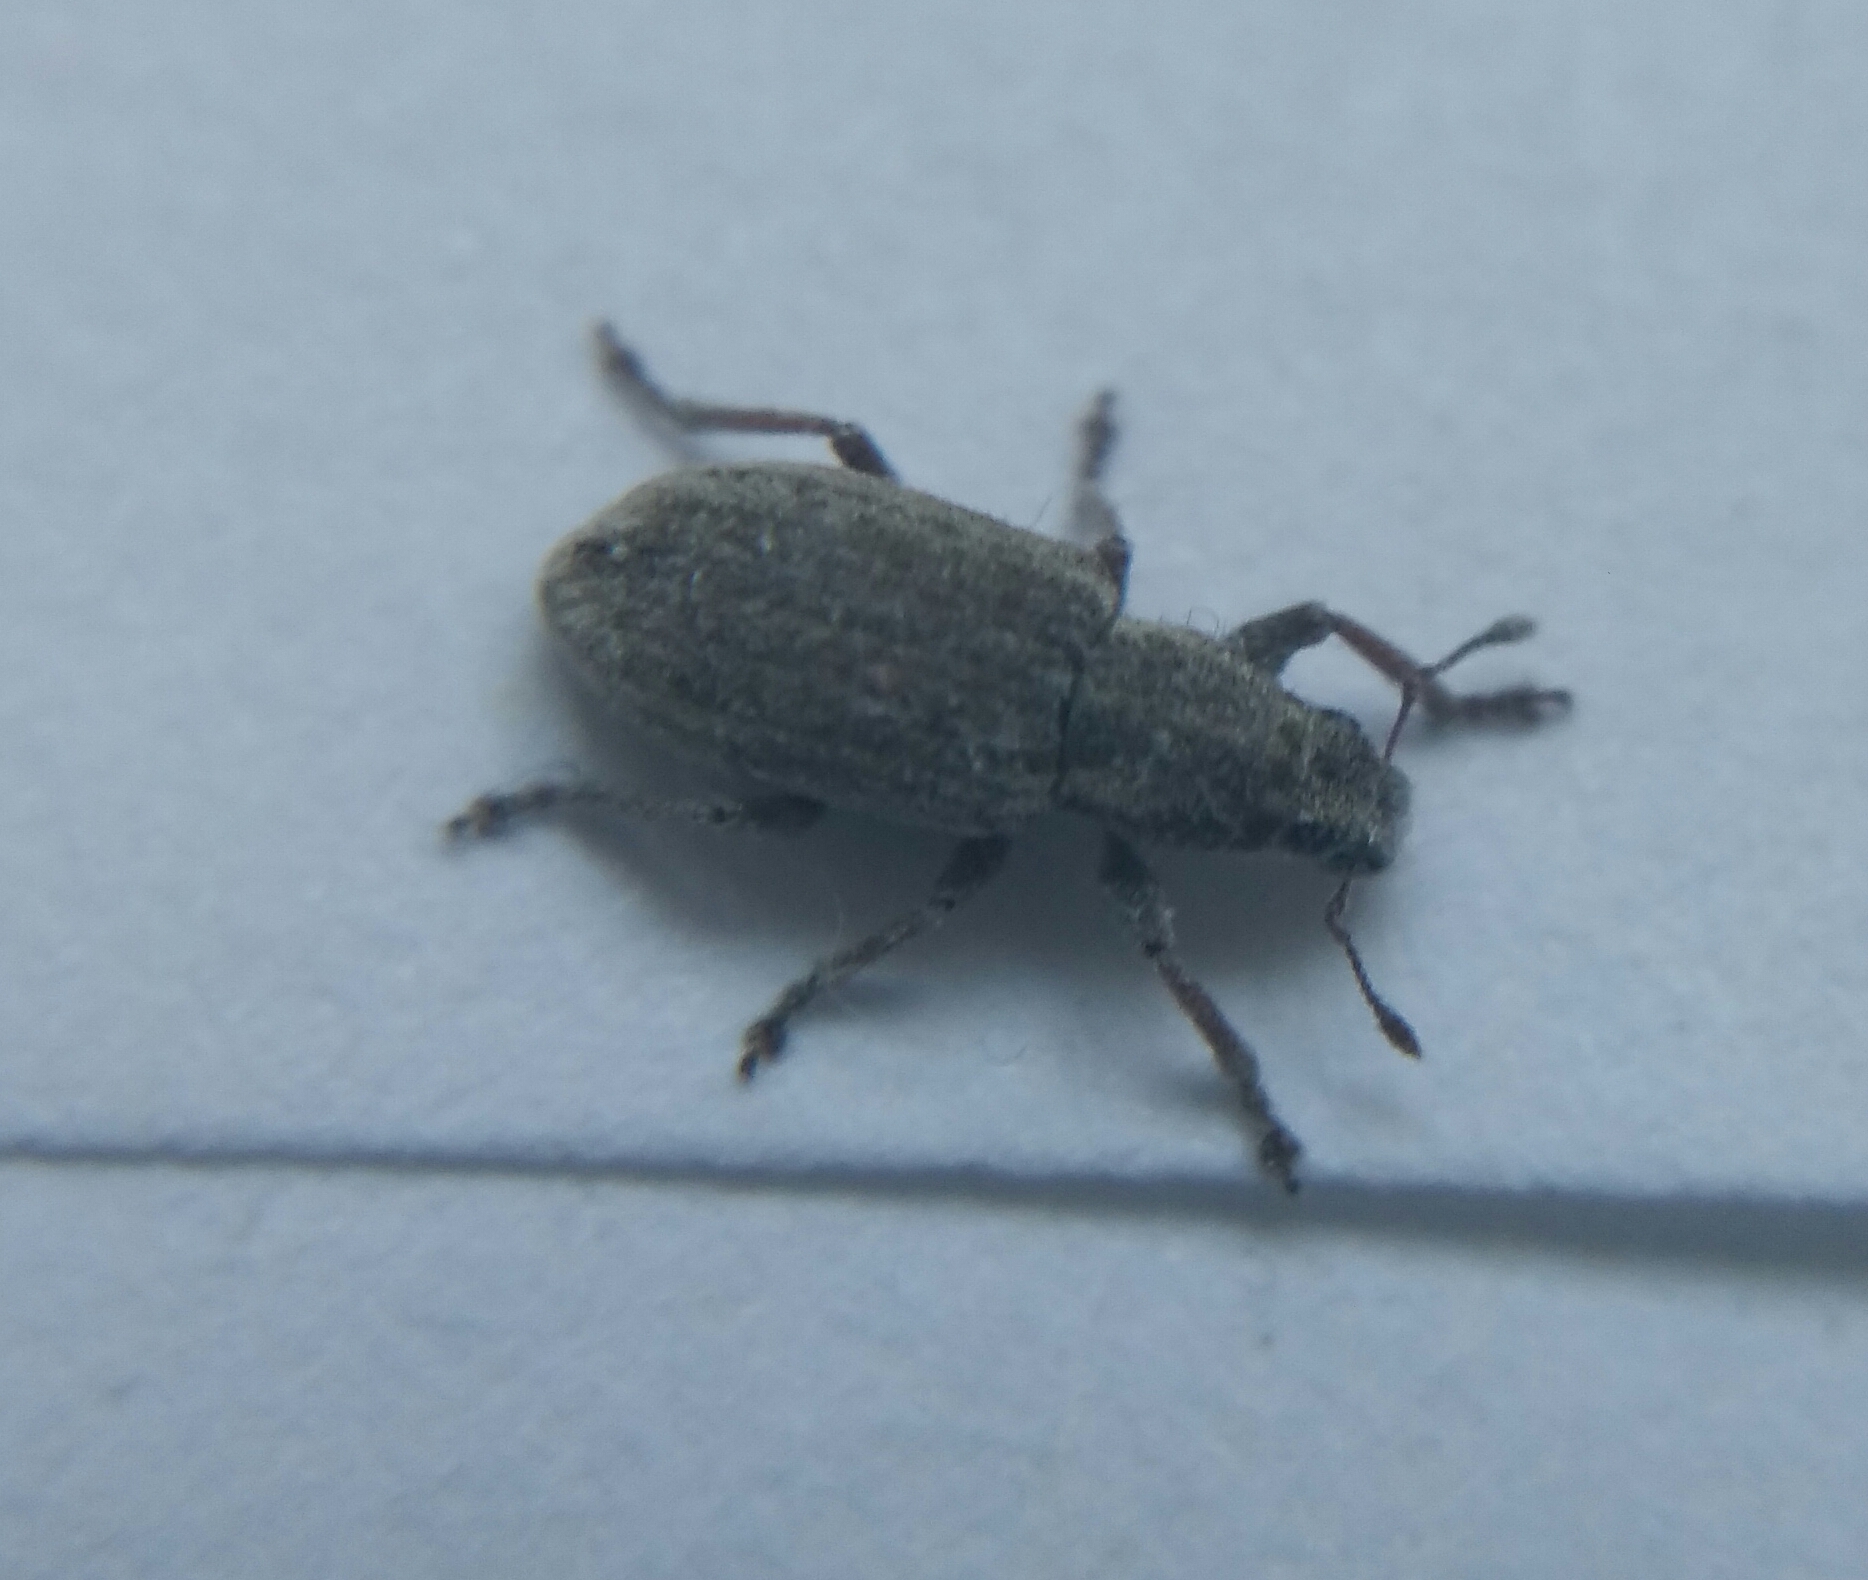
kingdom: Animalia
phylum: Arthropoda
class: Insecta
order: Coleoptera
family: Curculionidae
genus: Sitona
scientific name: Sitona humeralis
